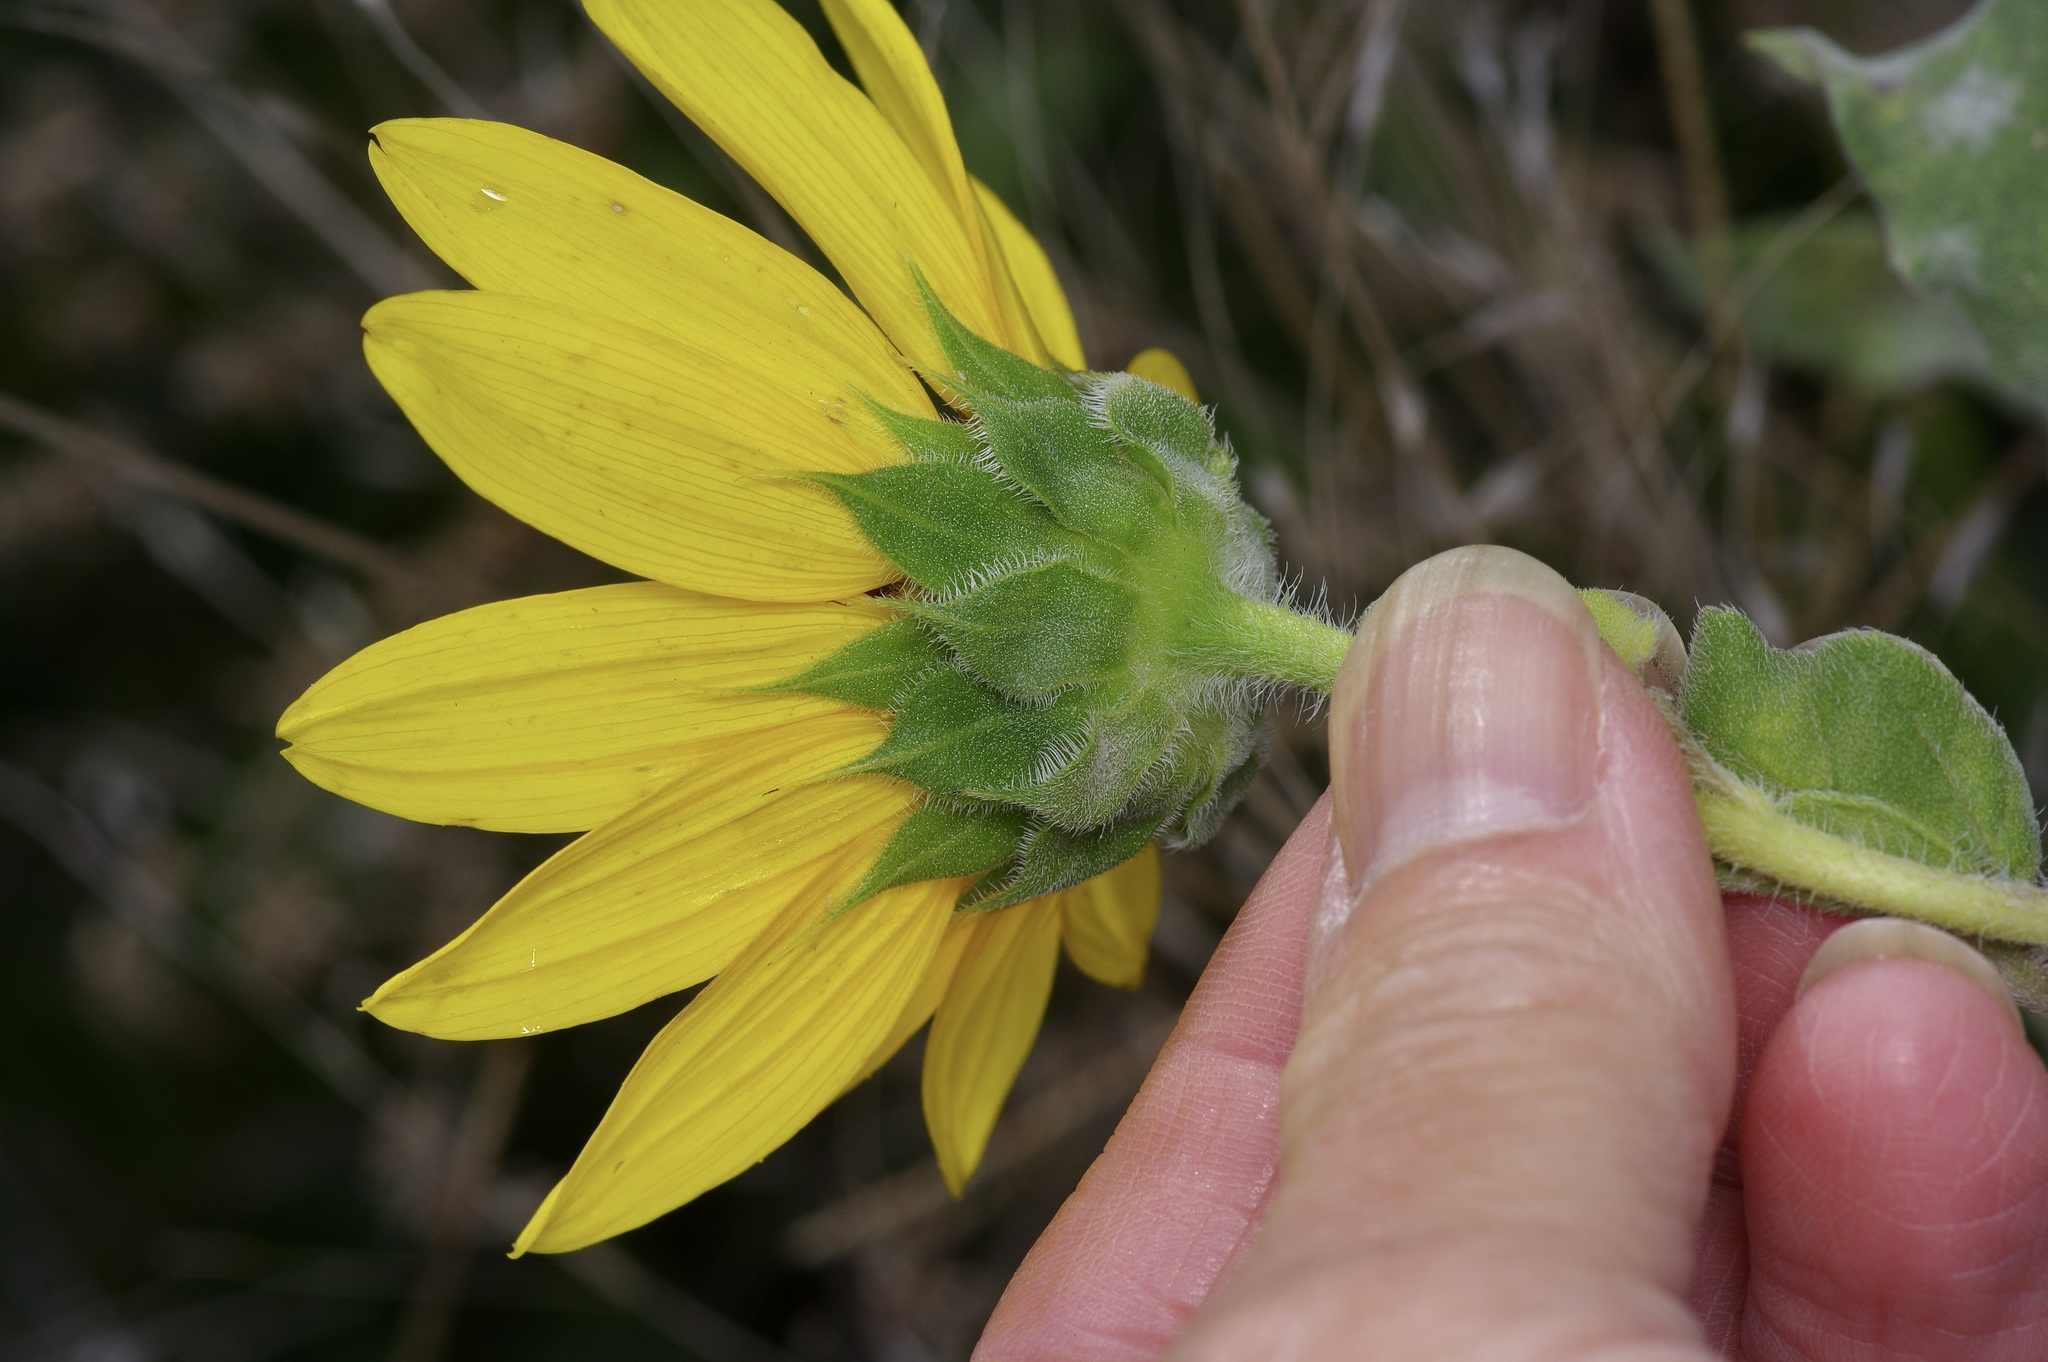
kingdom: Plantae
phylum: Tracheophyta
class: Magnoliopsida
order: Asterales
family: Asteraceae
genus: Helianthus
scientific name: Helianthus annuus
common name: Sunflower
